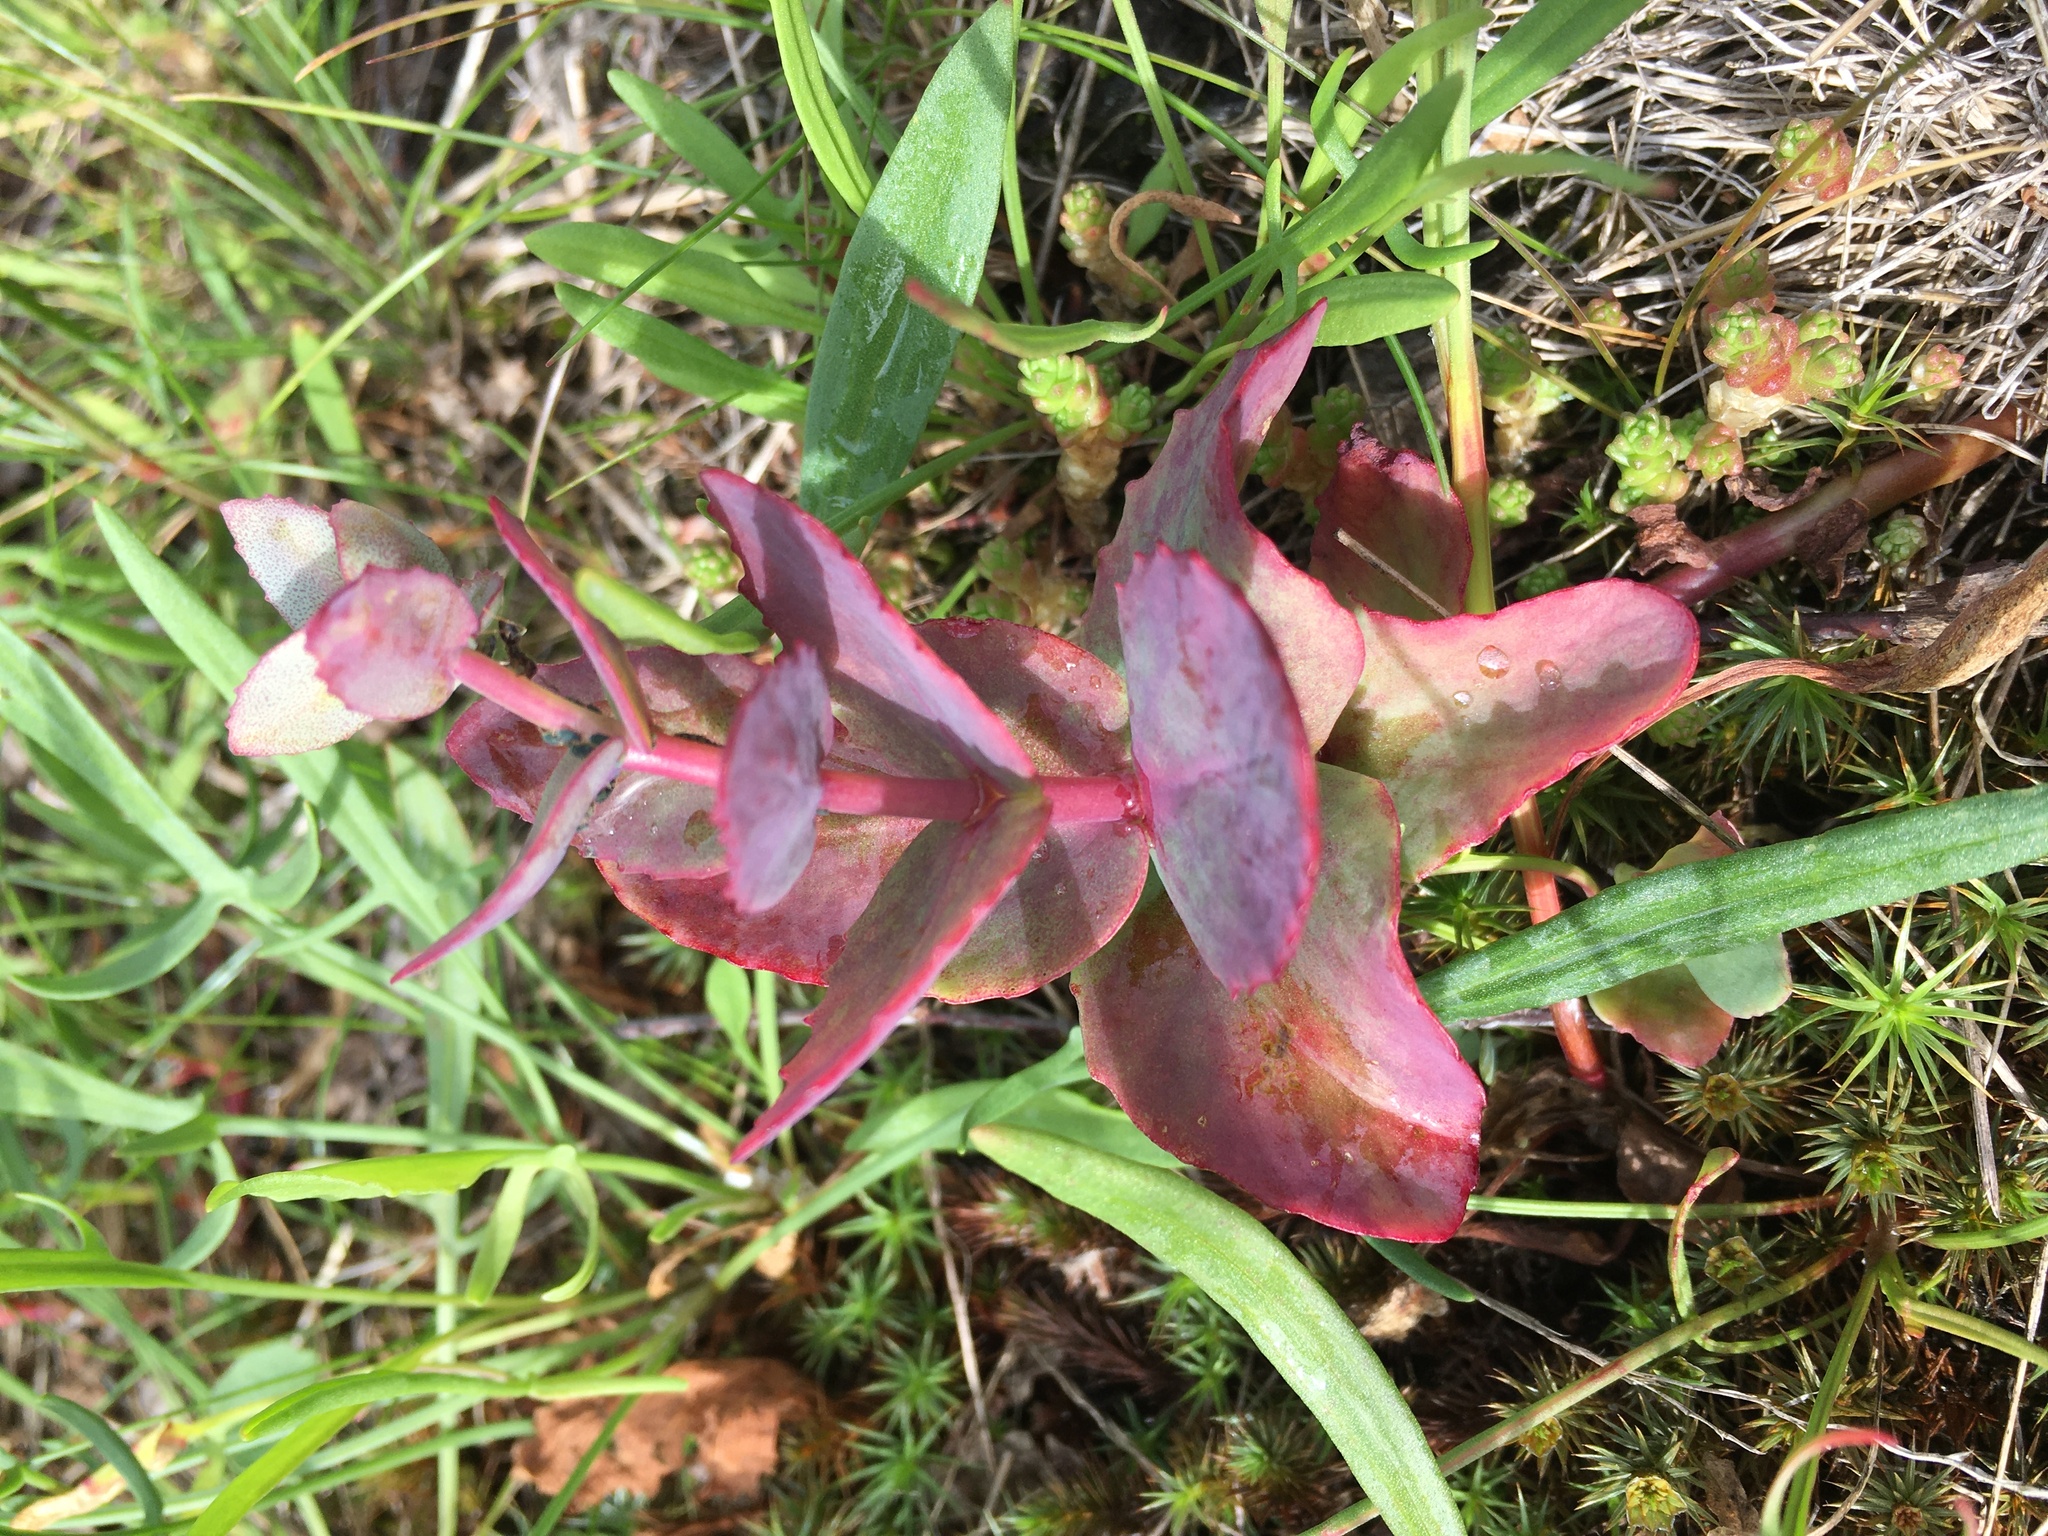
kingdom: Plantae
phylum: Tracheophyta
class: Magnoliopsida
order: Saxifragales
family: Crassulaceae
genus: Hylotelephium
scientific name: Hylotelephium maximum
